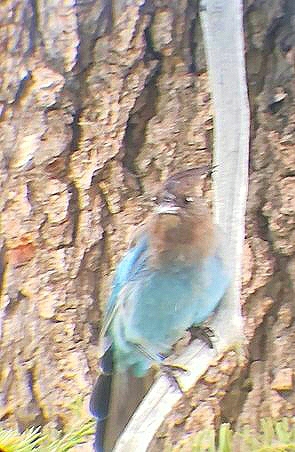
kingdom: Animalia
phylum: Chordata
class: Aves
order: Passeriformes
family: Corvidae
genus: Cyanocitta
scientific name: Cyanocitta stelleri
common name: Steller's jay
